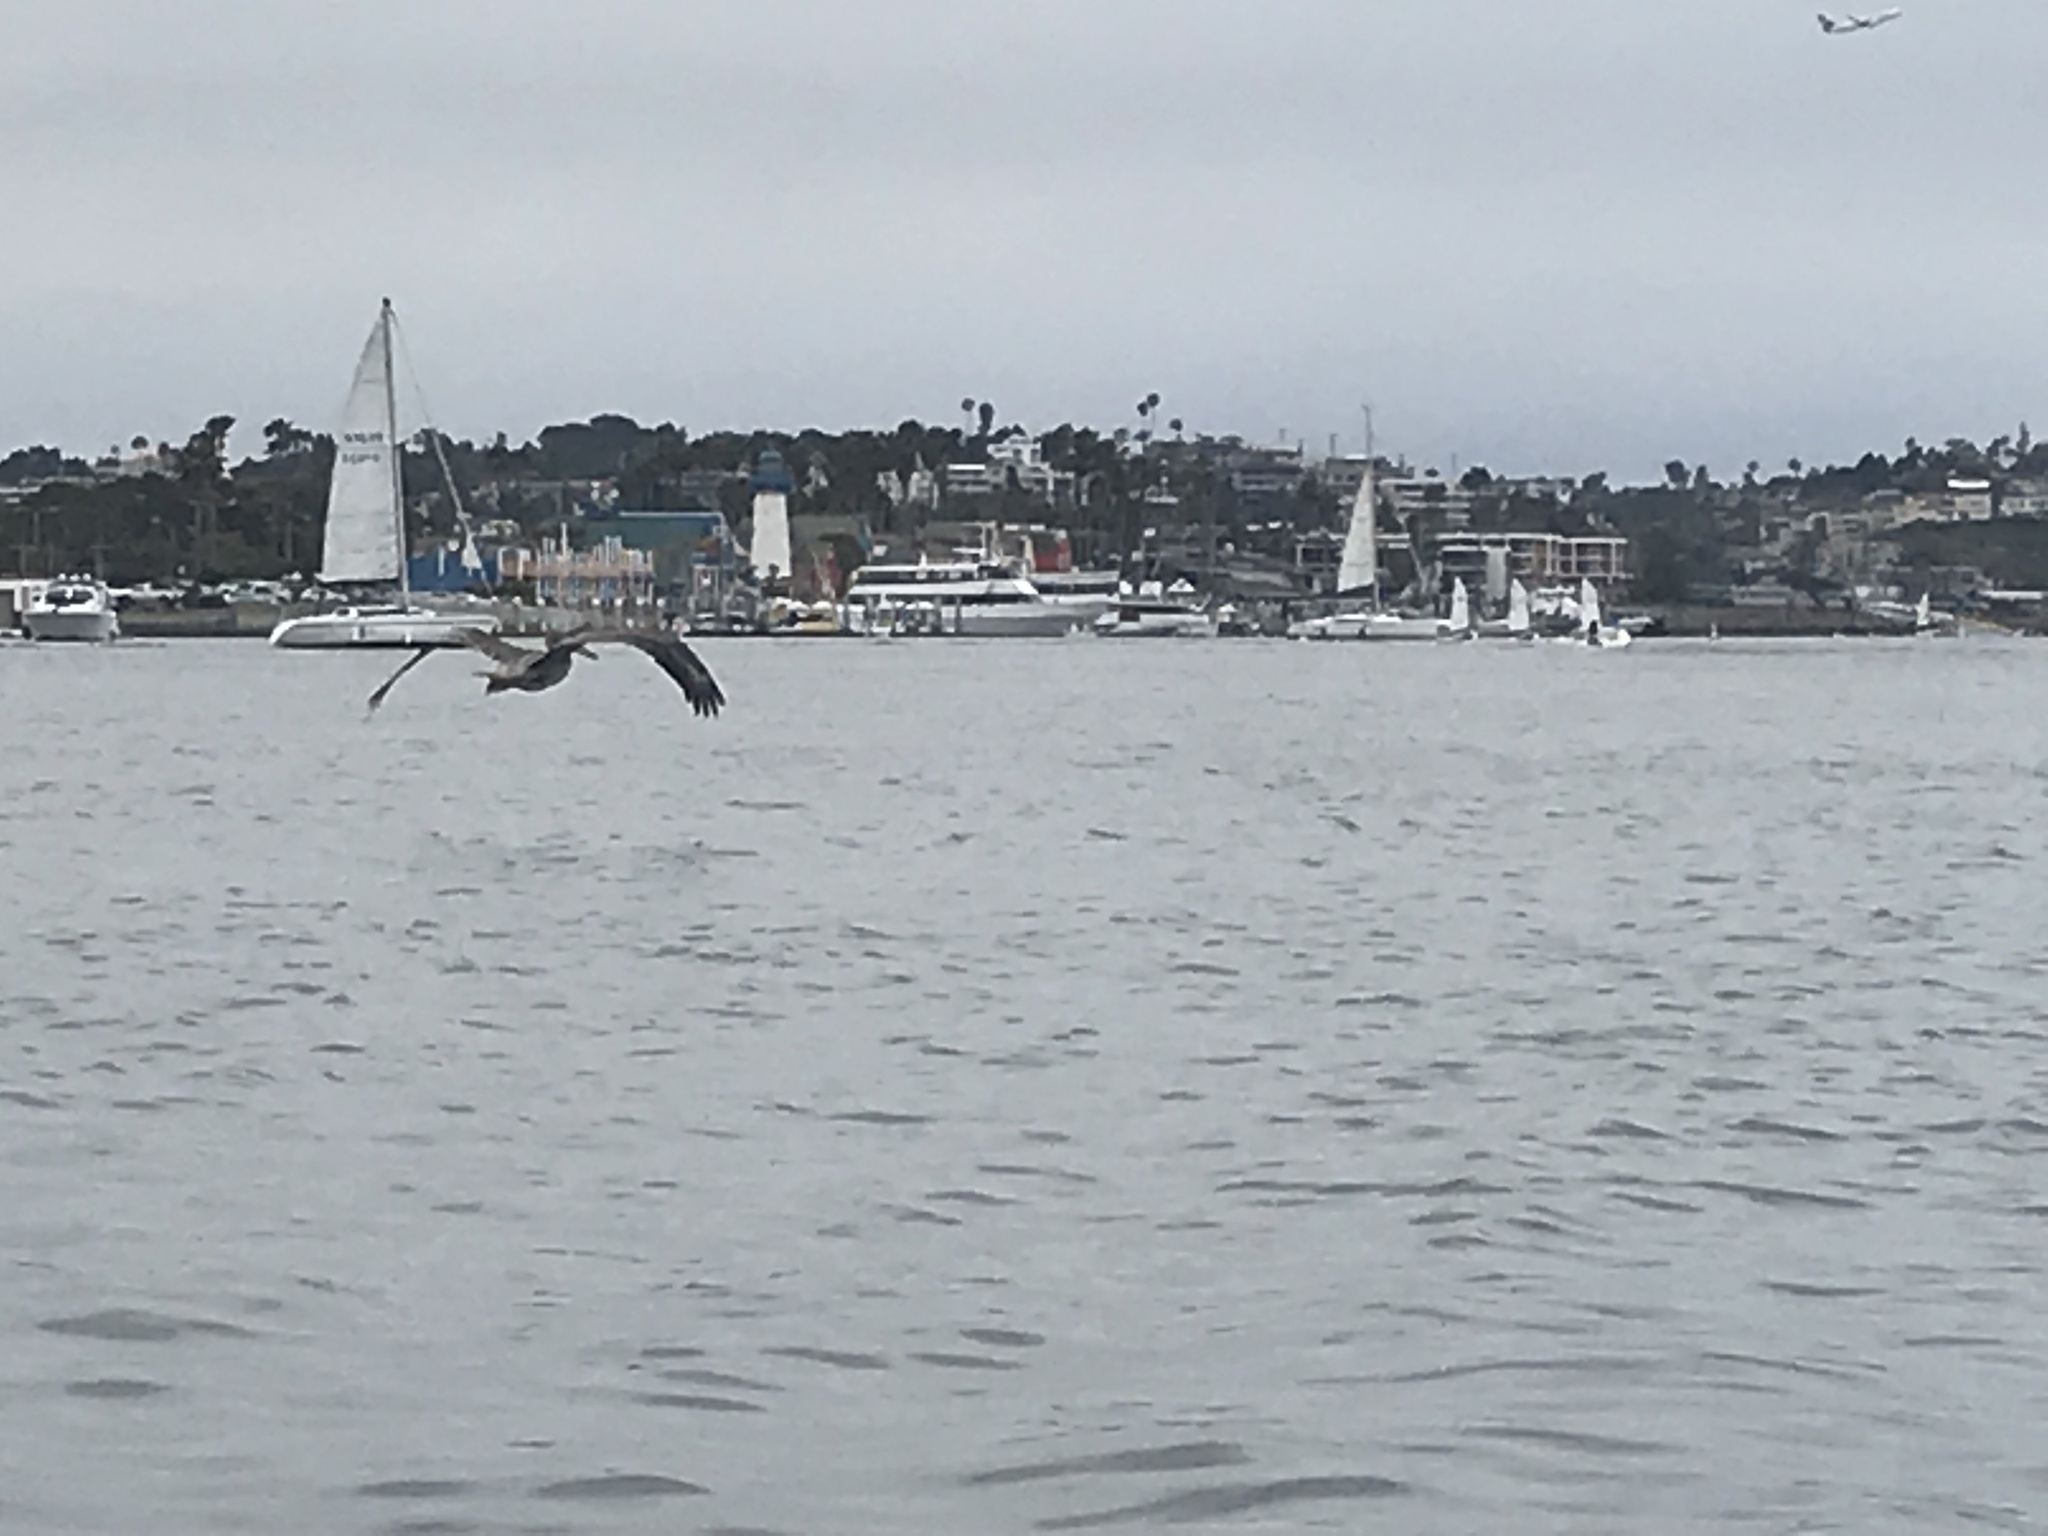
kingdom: Animalia
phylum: Chordata
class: Aves
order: Pelecaniformes
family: Pelecanidae
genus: Pelecanus
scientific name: Pelecanus occidentalis
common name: Brown pelican
